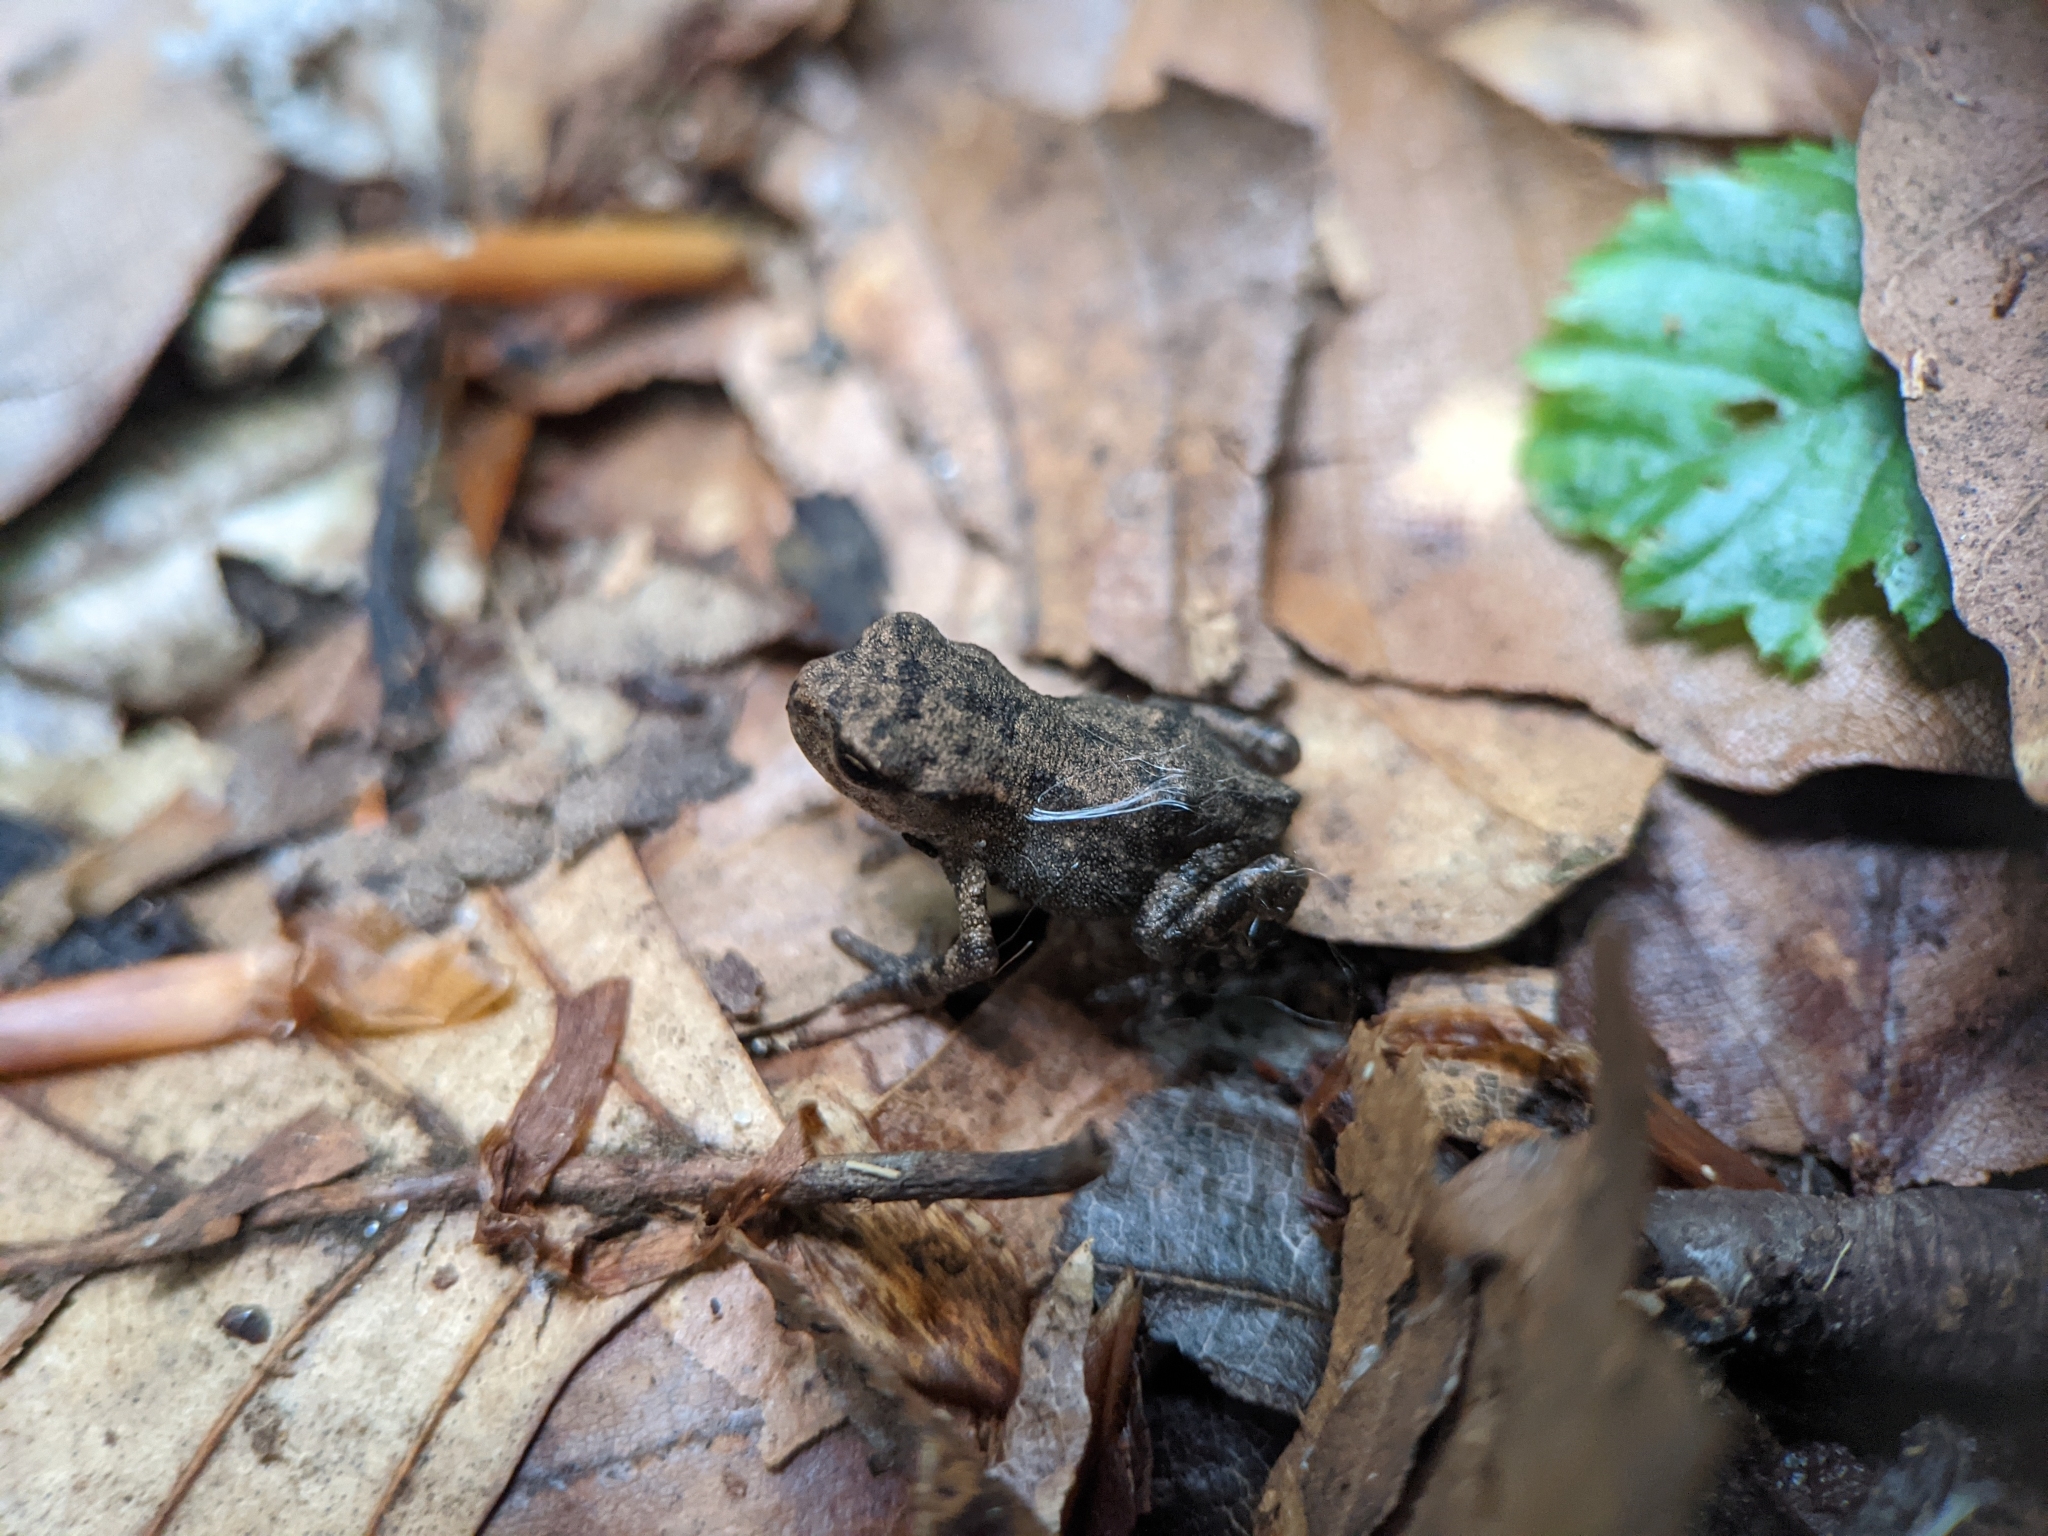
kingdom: Animalia
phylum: Chordata
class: Amphibia
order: Anura
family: Bufonidae
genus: Bufo
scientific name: Bufo bufo
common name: Common toad
